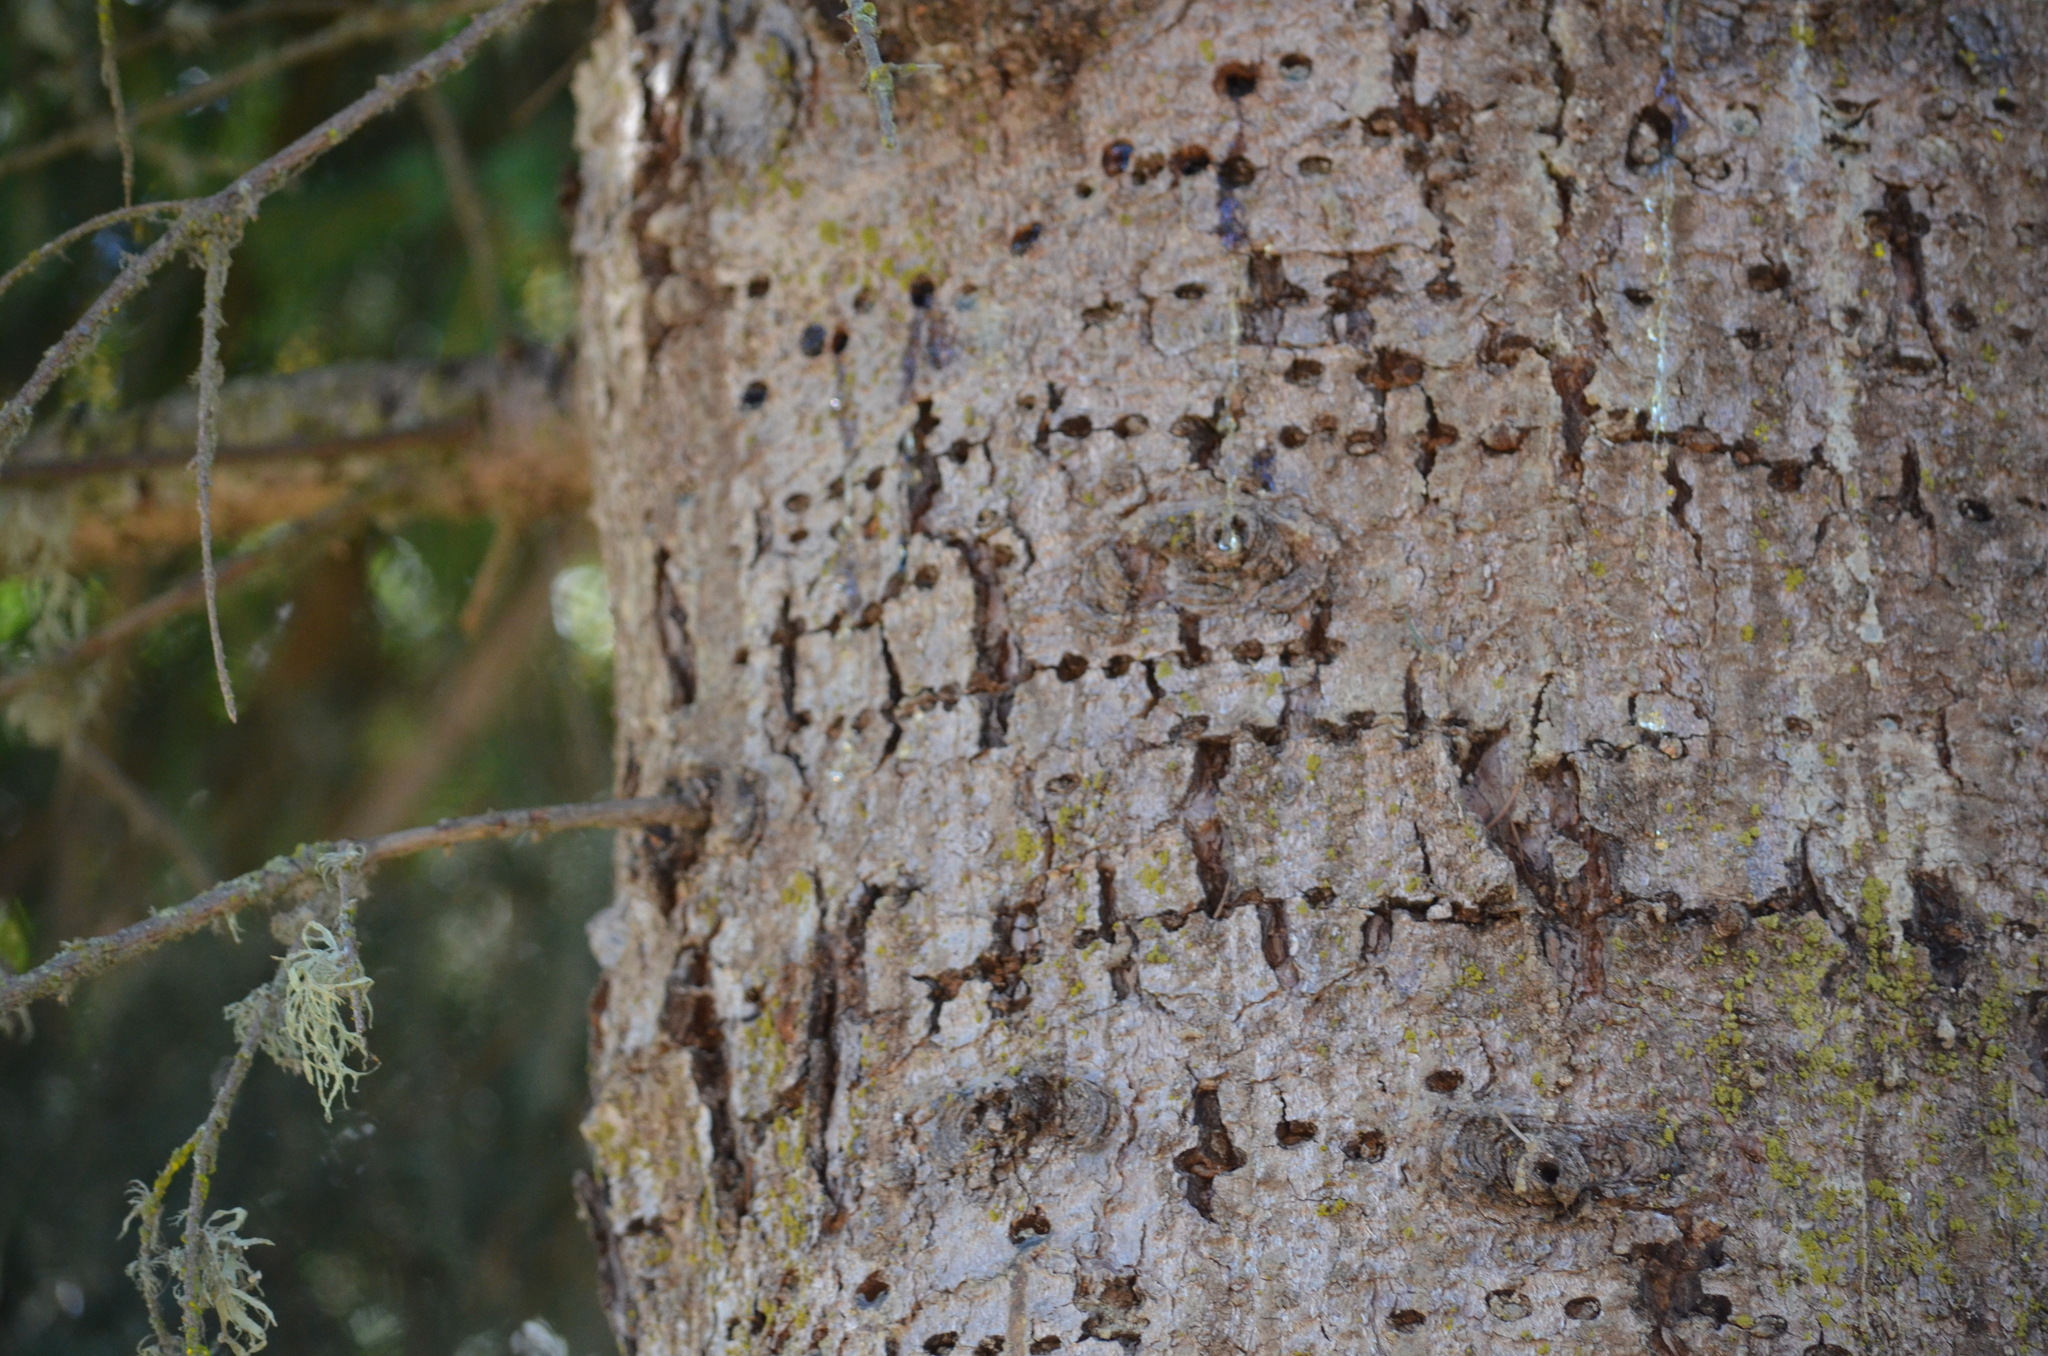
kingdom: Animalia
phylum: Chordata
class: Aves
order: Piciformes
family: Picidae
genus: Sphyrapicus
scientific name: Sphyrapicus ruber
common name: Red-breasted sapsucker
